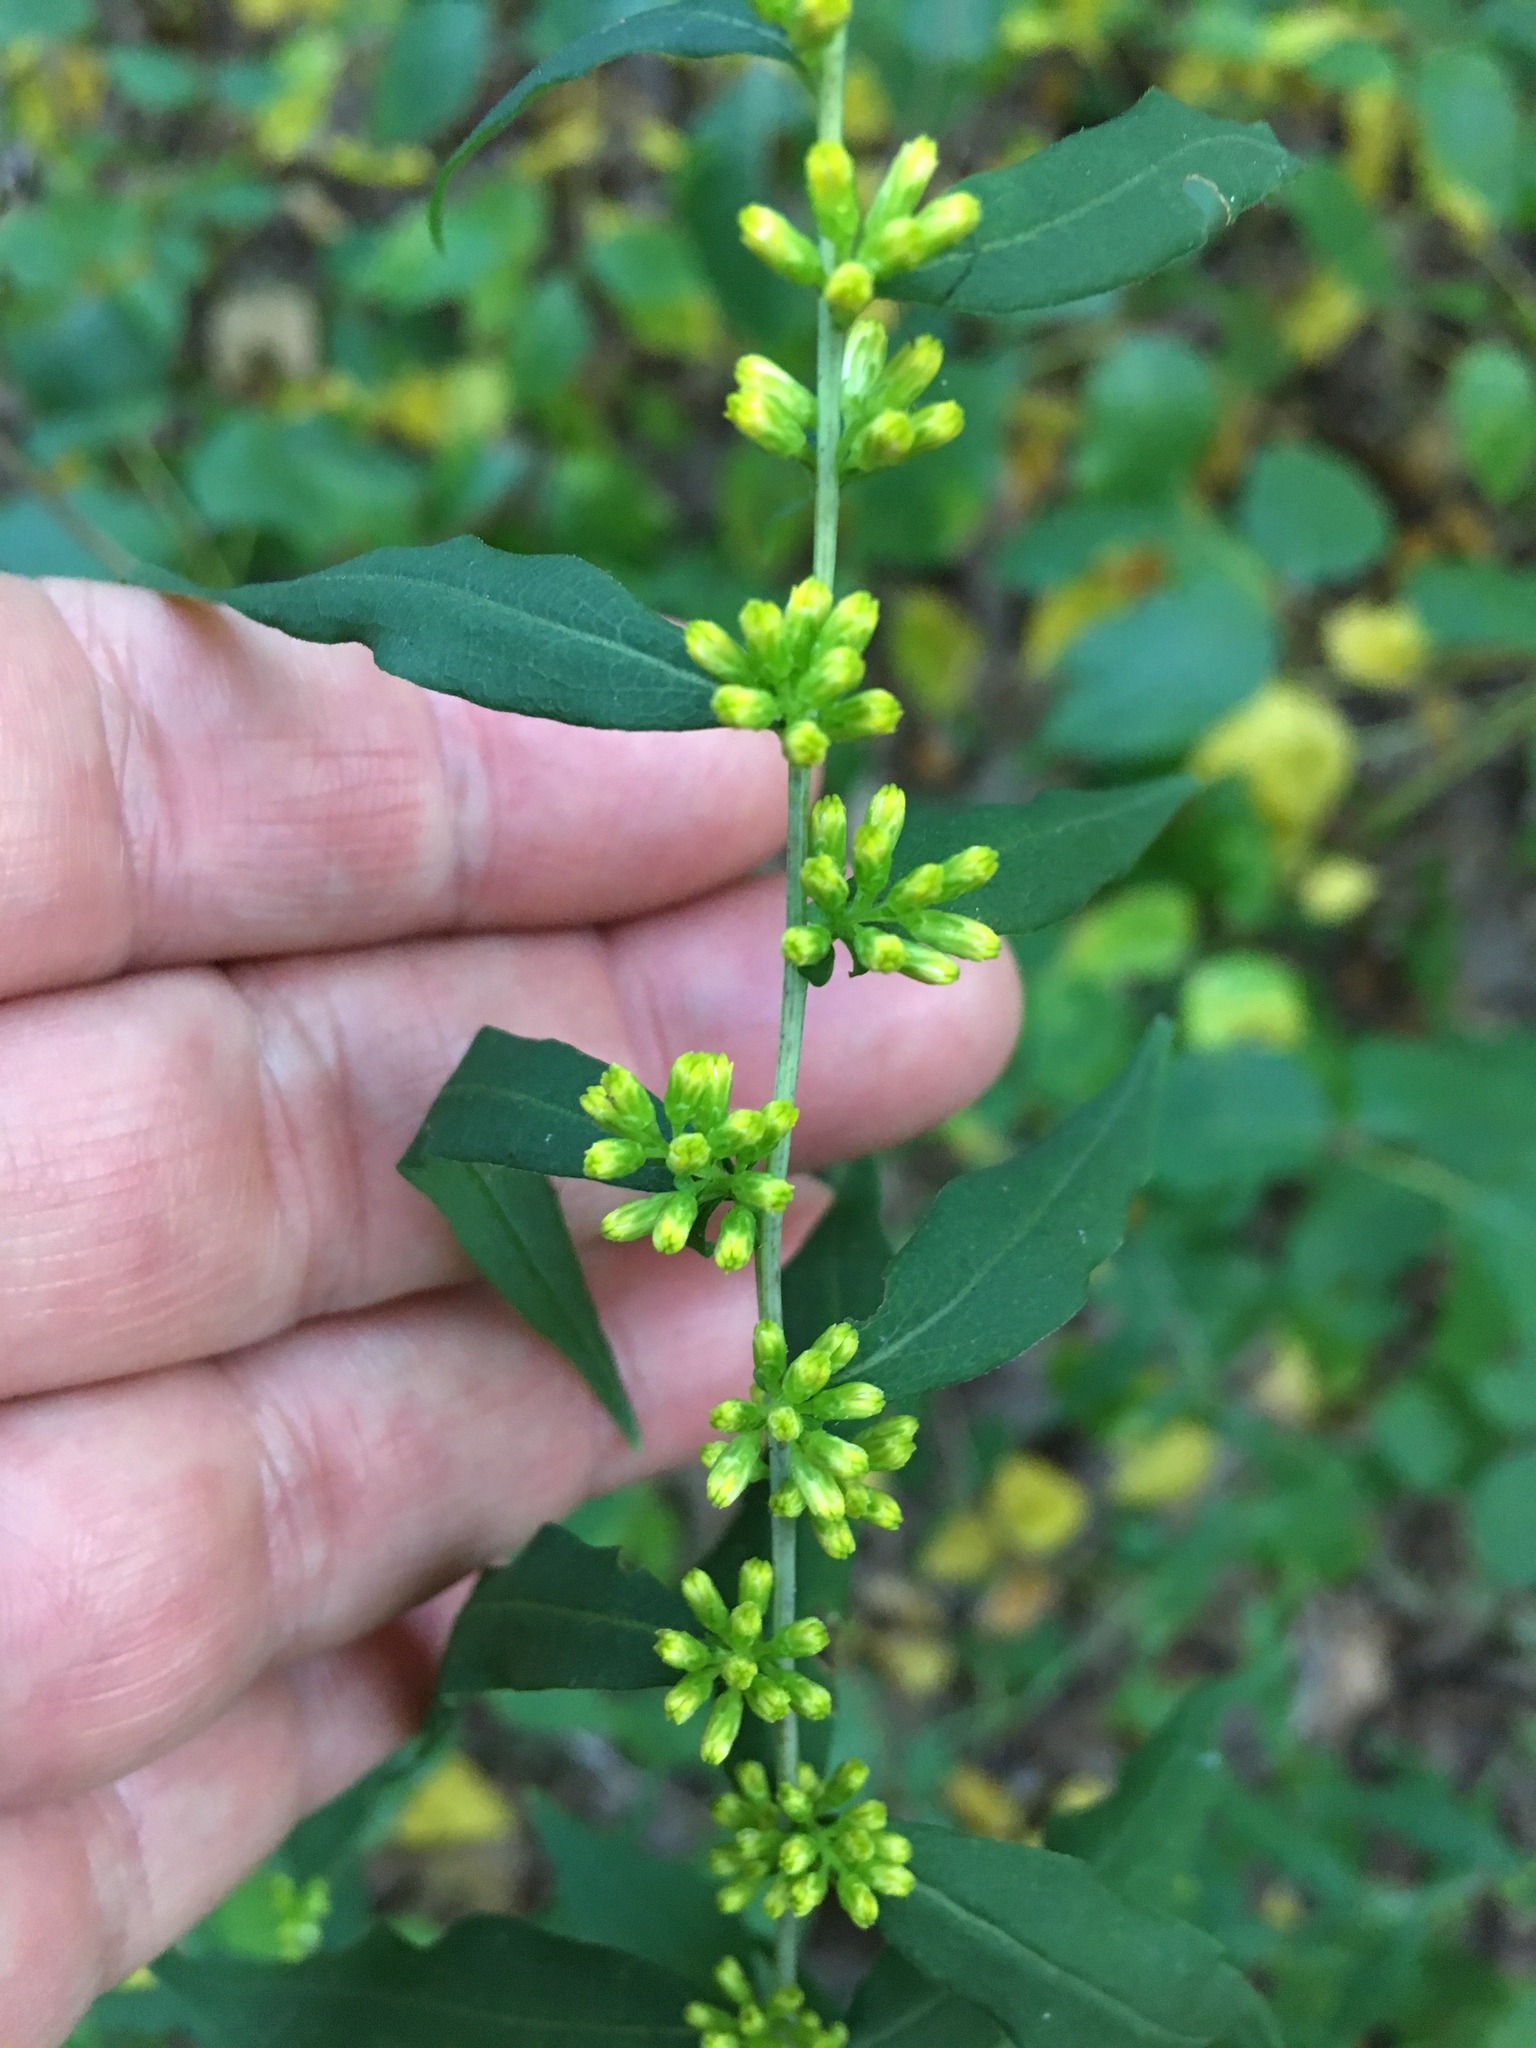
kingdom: Plantae
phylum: Tracheophyta
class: Magnoliopsida
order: Asterales
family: Asteraceae
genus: Solidago
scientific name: Solidago caesia
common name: Woodland goldenrod
